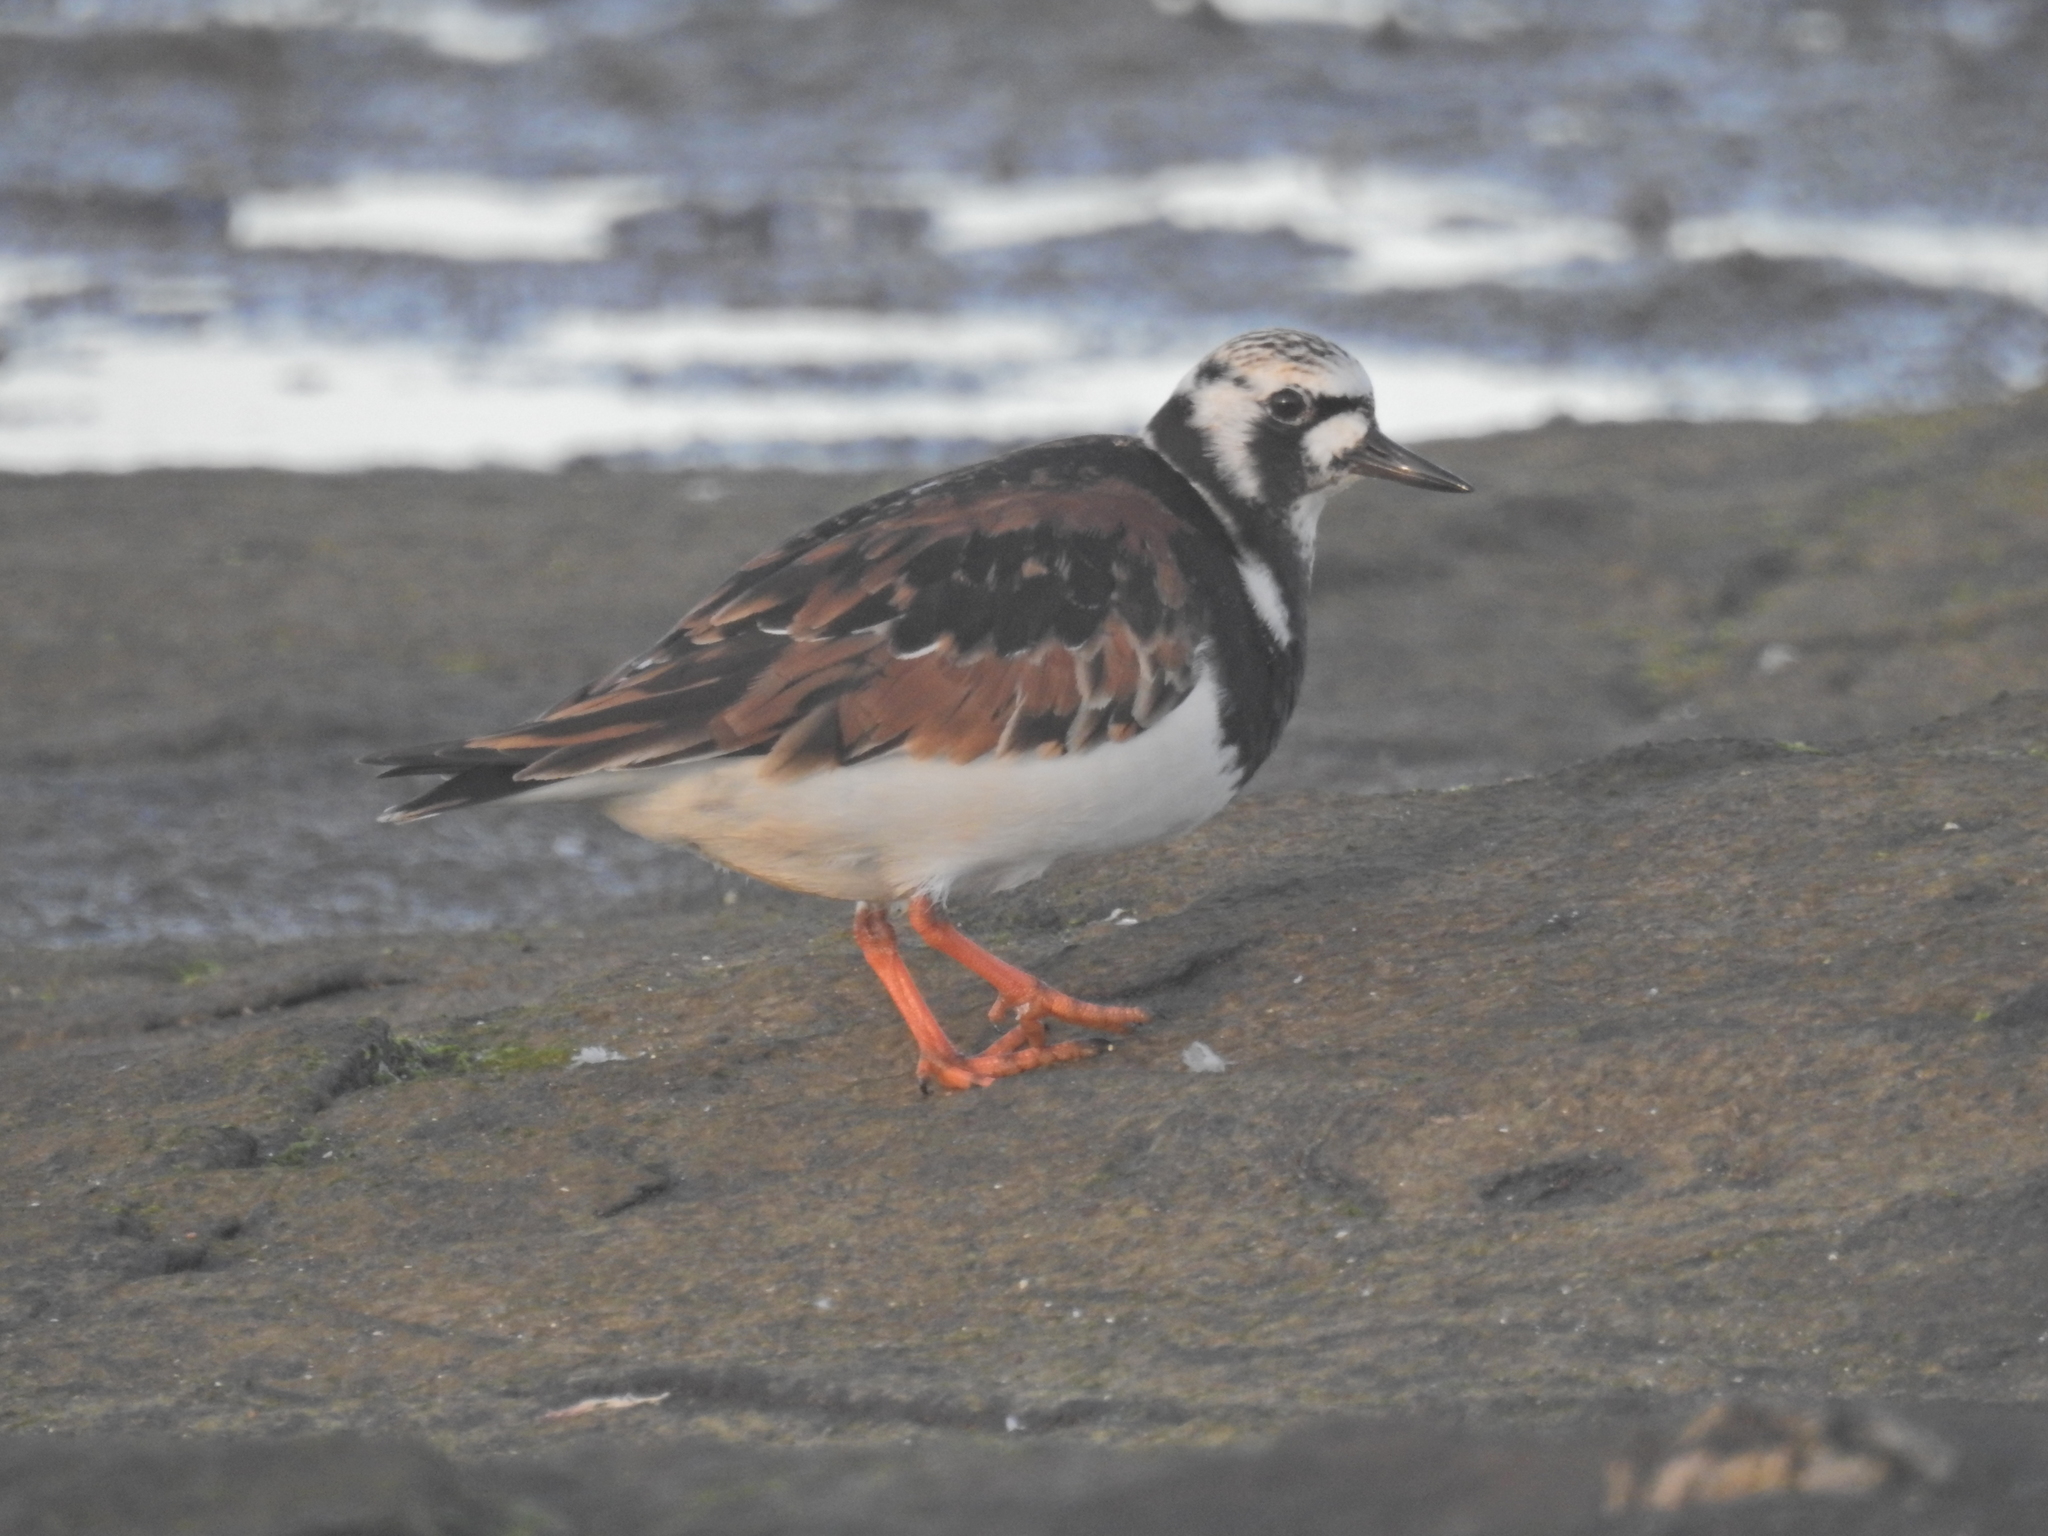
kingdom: Animalia
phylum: Chordata
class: Aves
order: Charadriiformes
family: Scolopacidae
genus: Arenaria
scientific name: Arenaria interpres
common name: Ruddy turnstone
